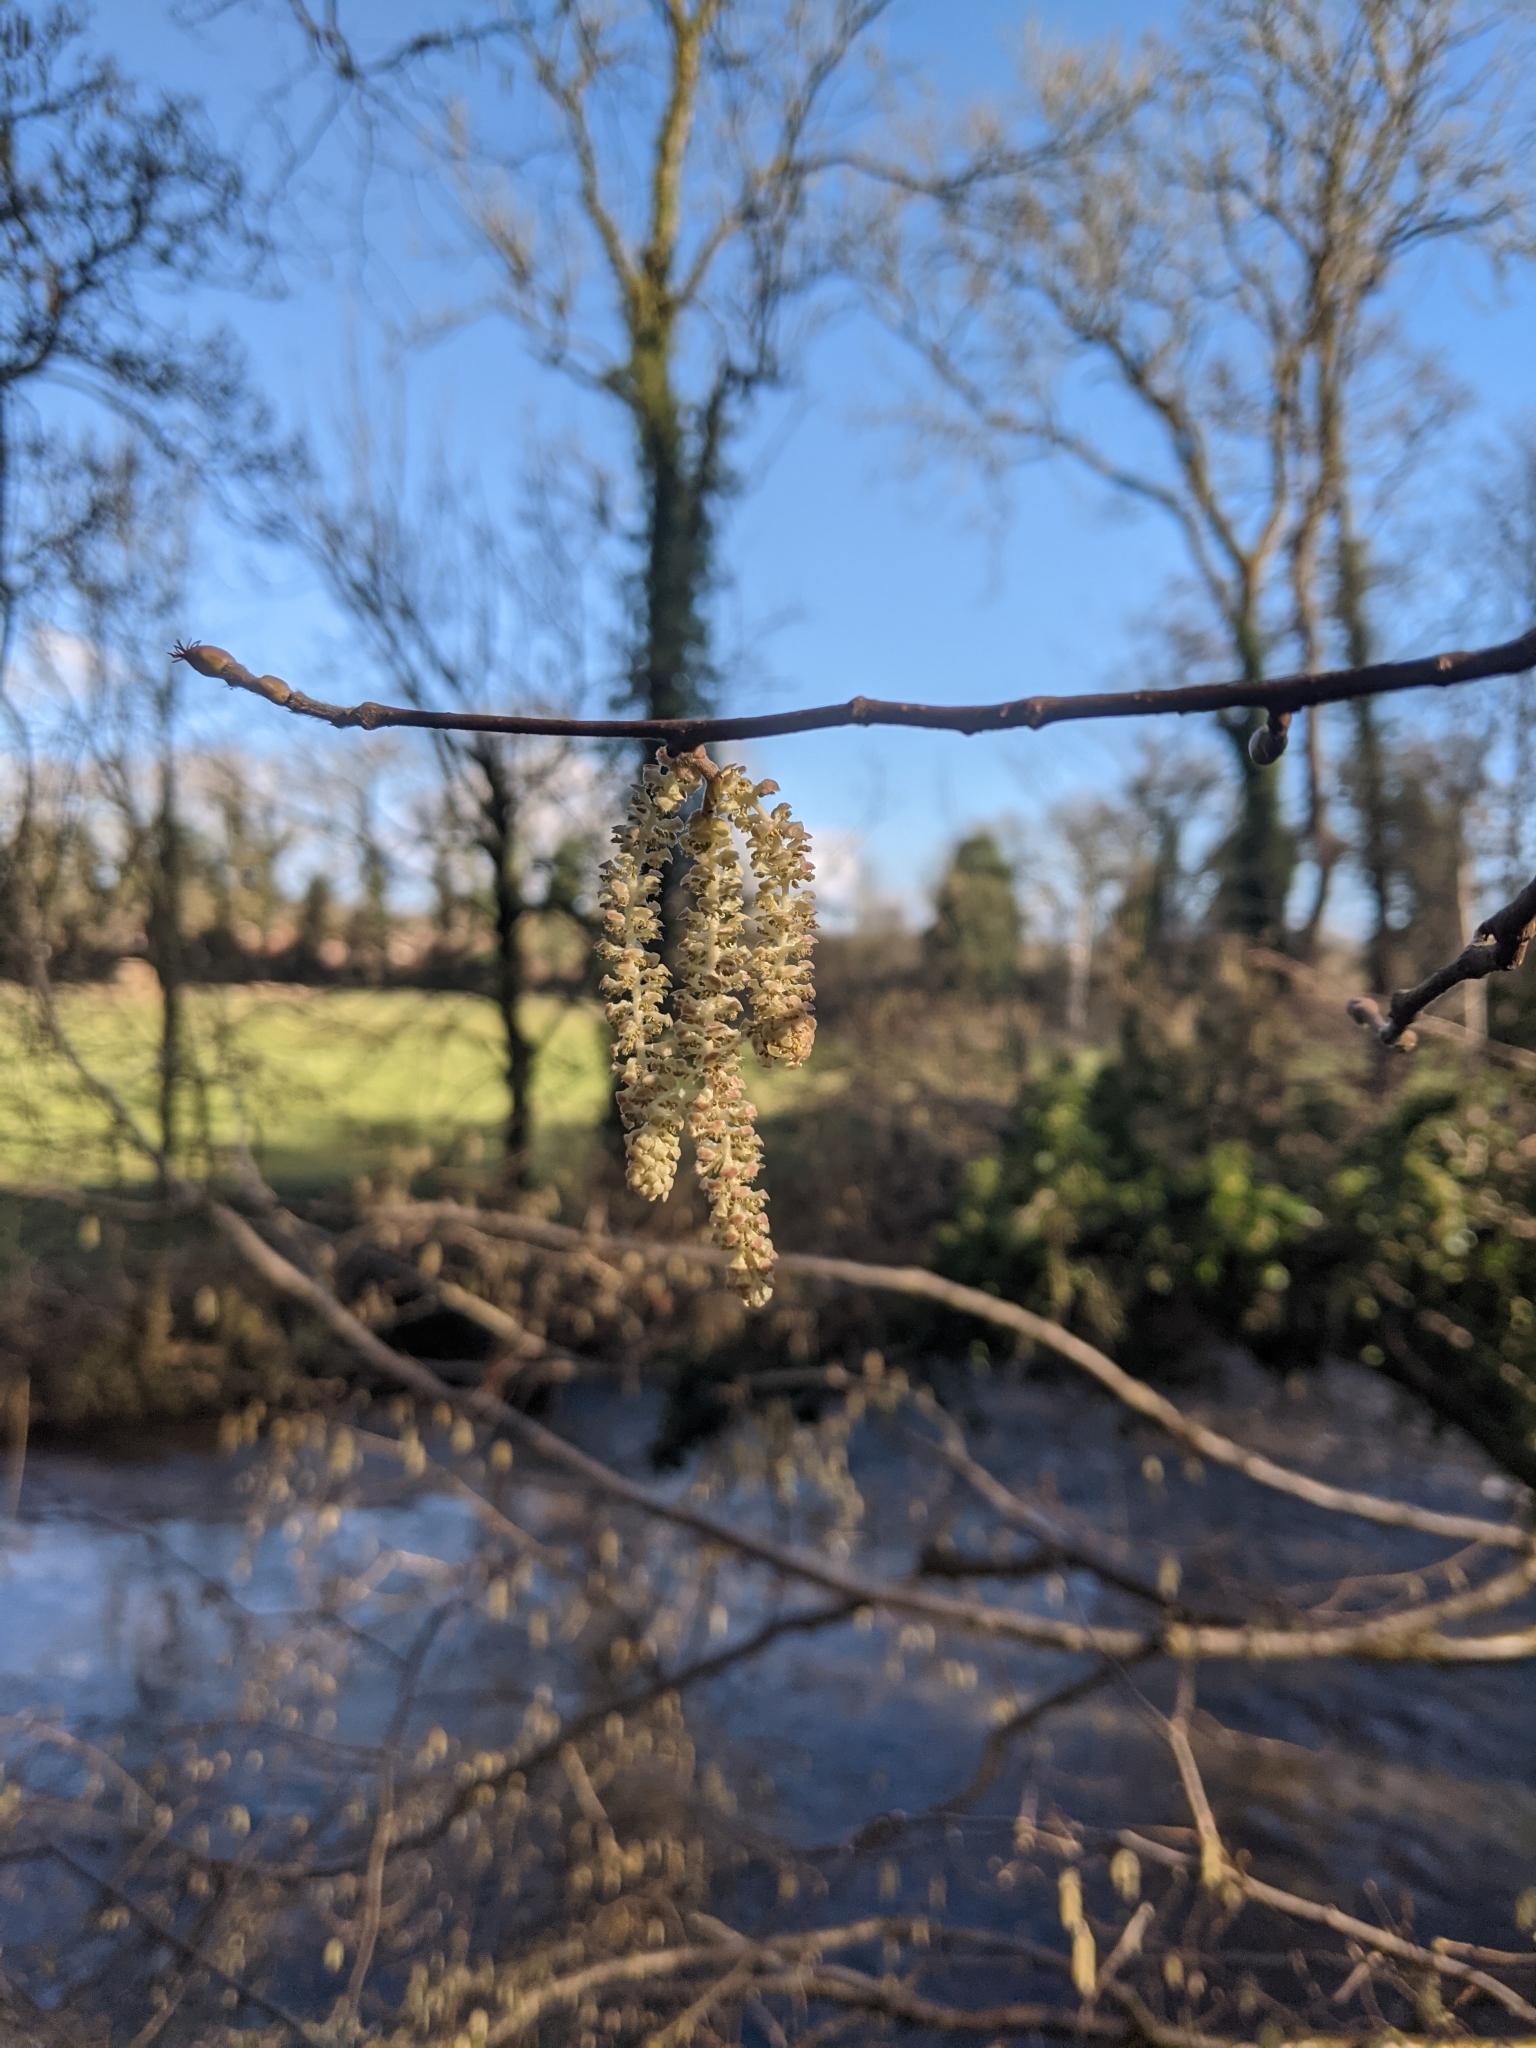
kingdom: Plantae
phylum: Tracheophyta
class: Magnoliopsida
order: Fagales
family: Betulaceae
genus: Corylus
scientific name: Corylus avellana
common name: European hazel
